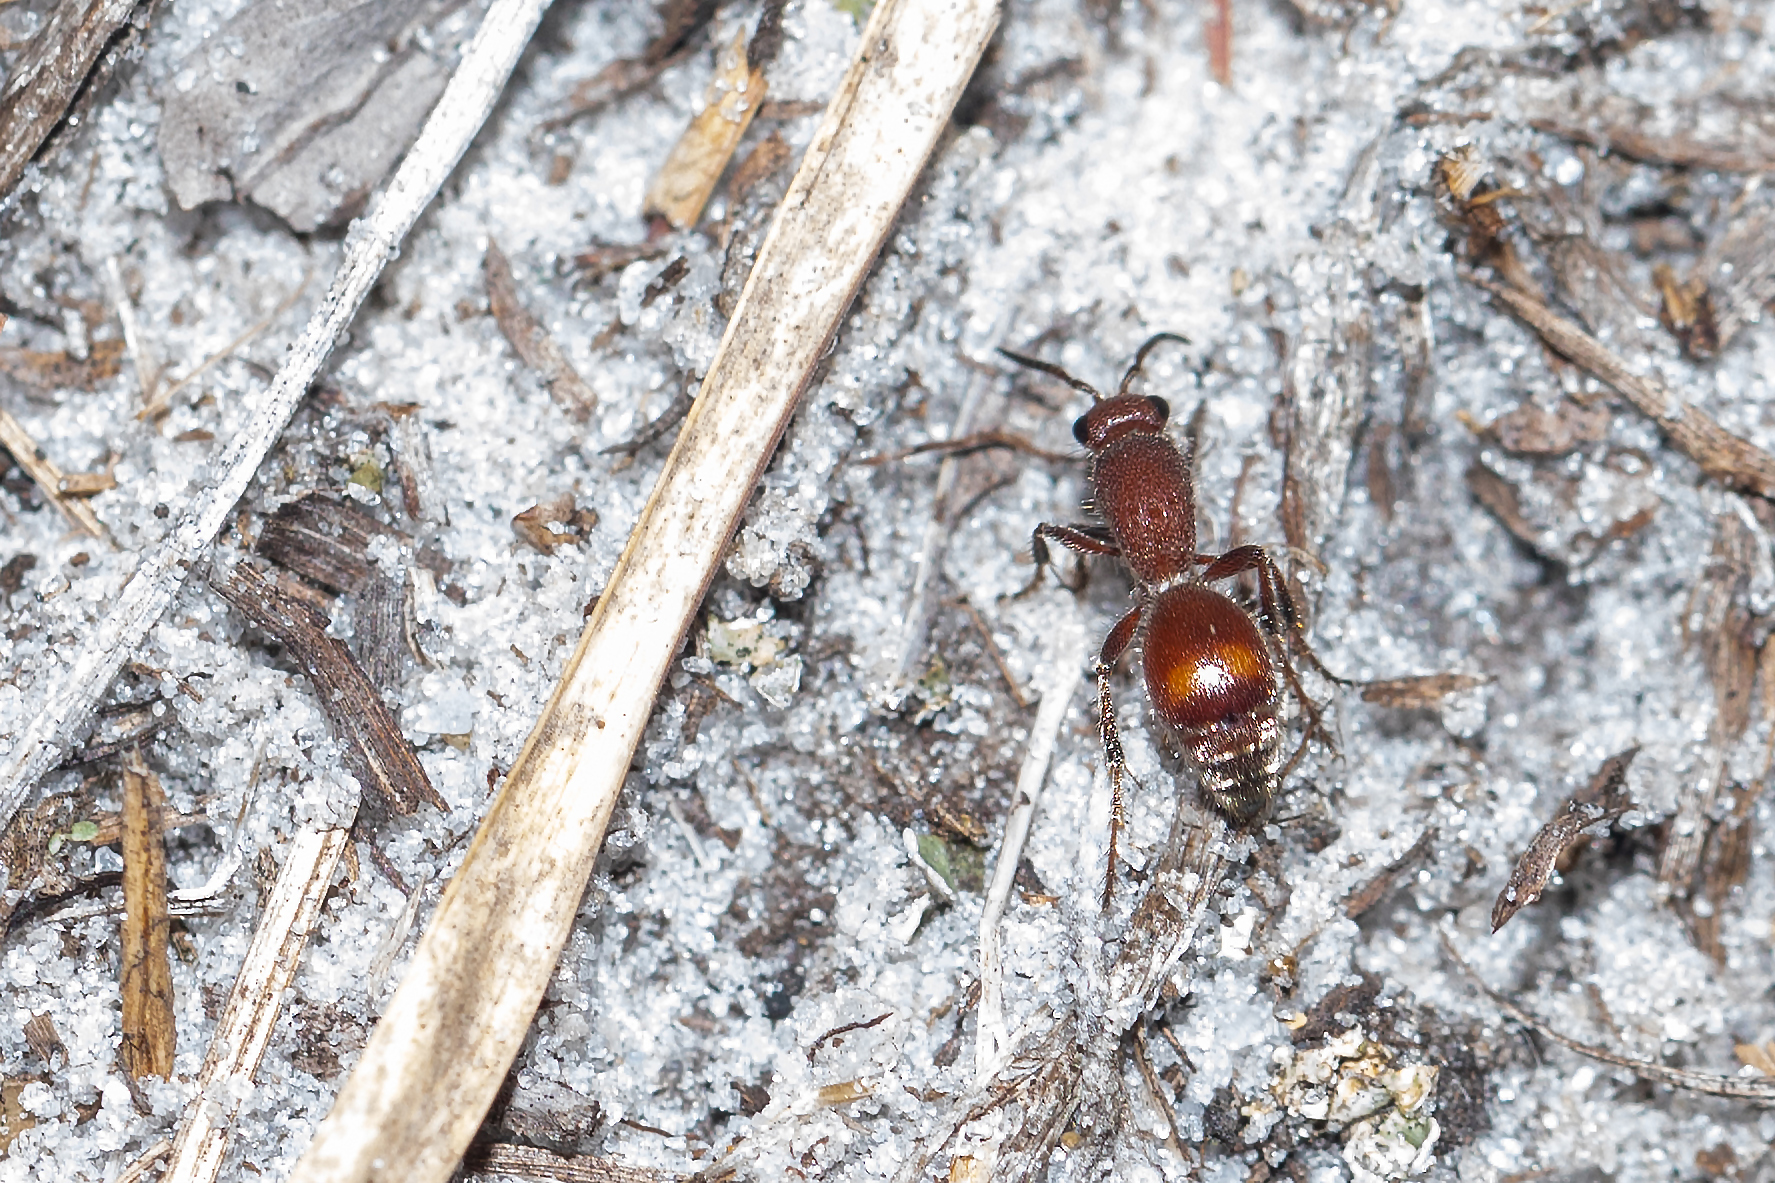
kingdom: Animalia
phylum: Arthropoda
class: Insecta
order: Hymenoptera
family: Mutillidae
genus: Dasymutilla
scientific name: Dasymutilla arenerronea
